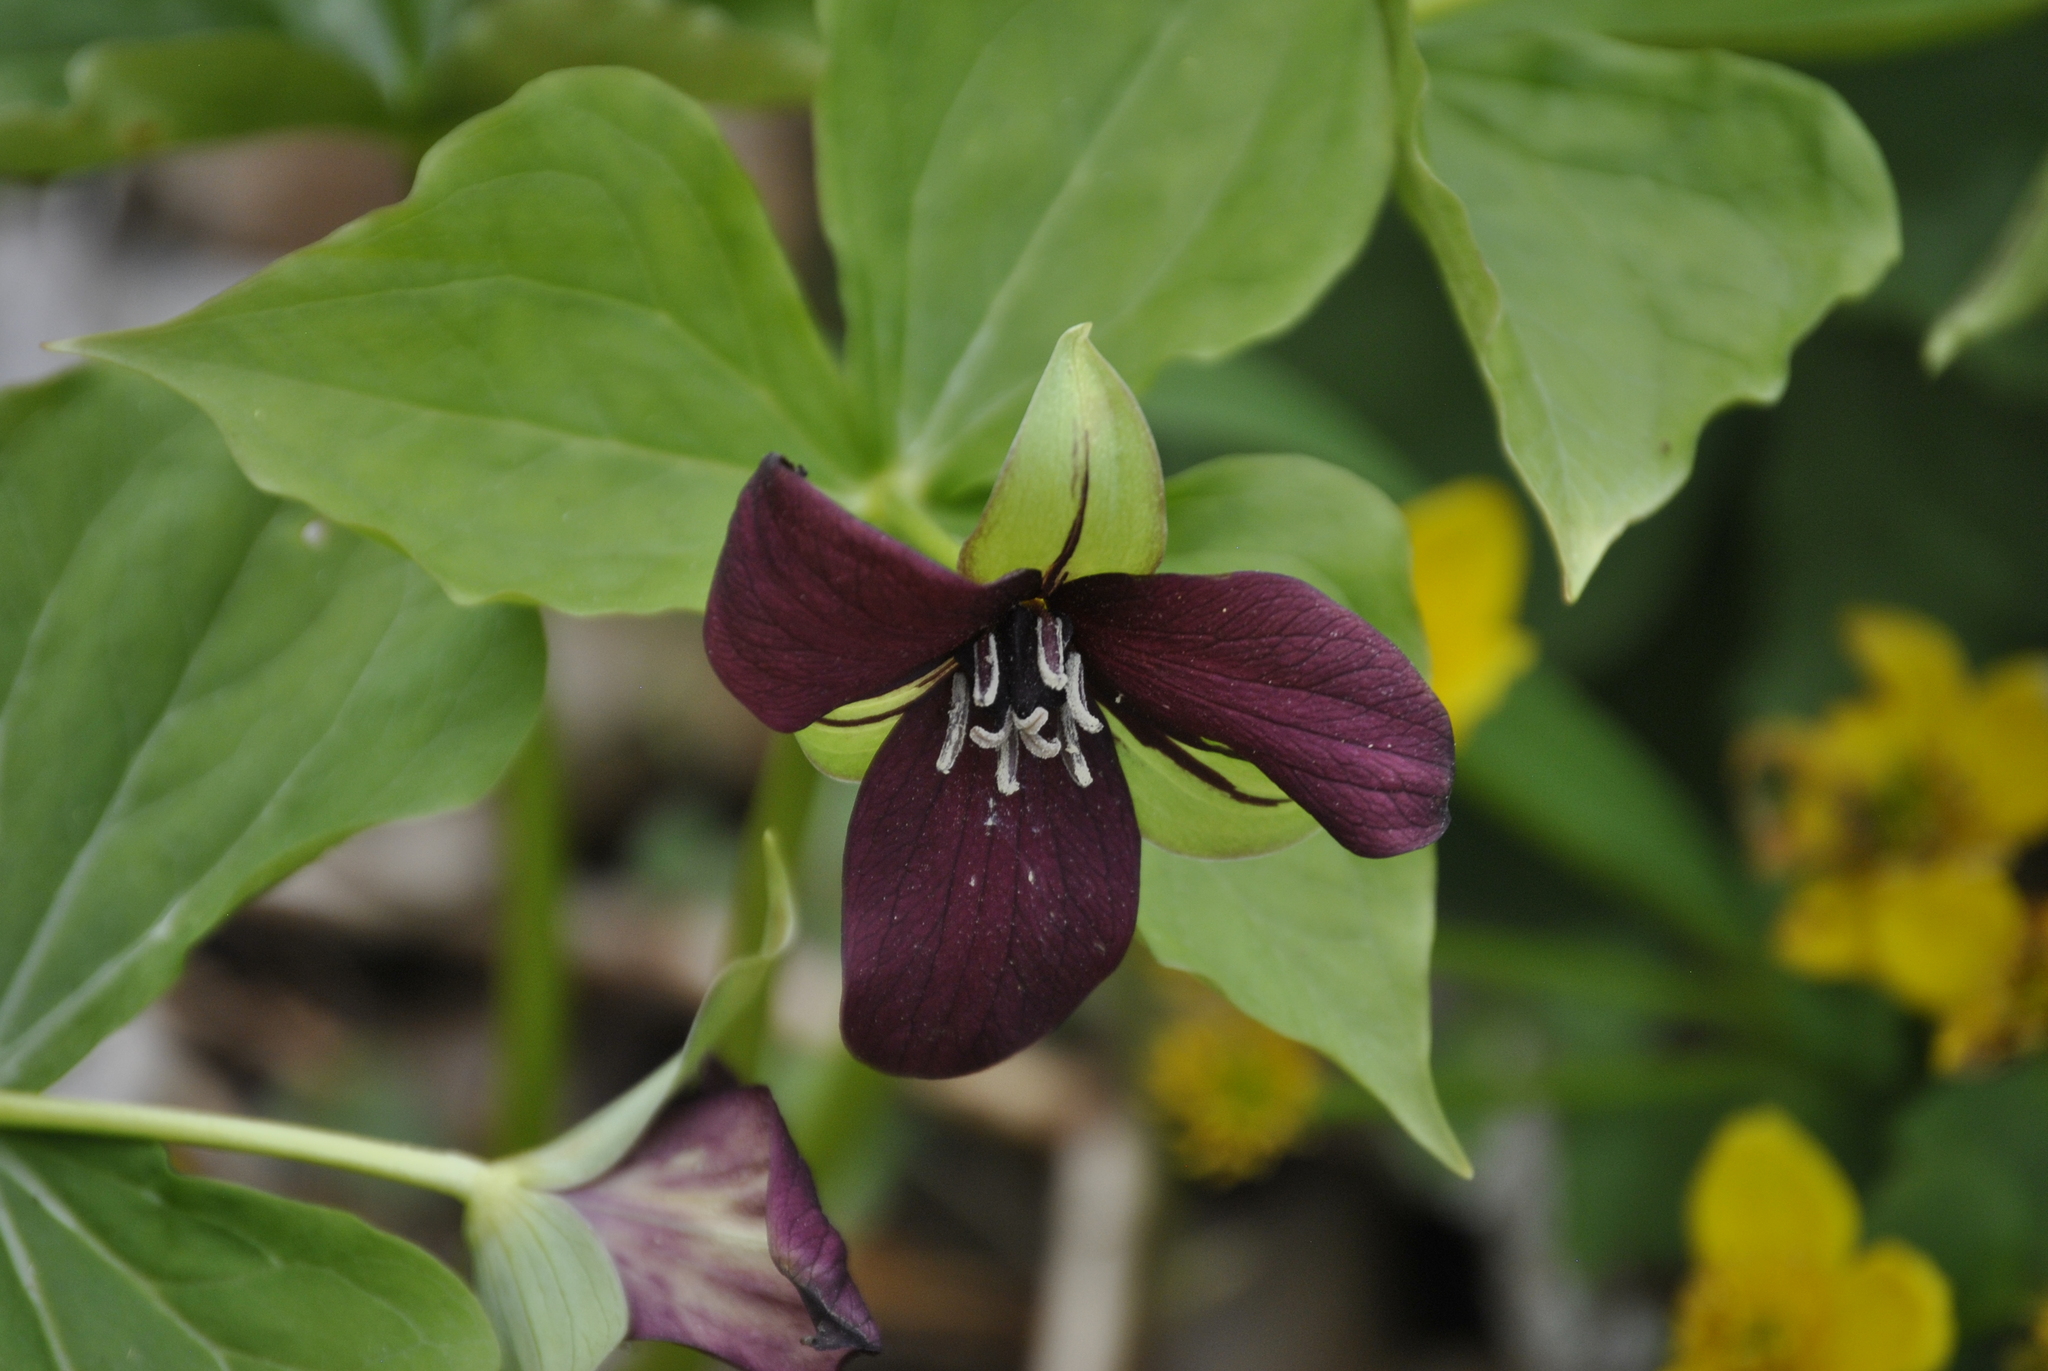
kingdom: Plantae
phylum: Tracheophyta
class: Liliopsida
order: Liliales
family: Melanthiaceae
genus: Trillium
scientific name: Trillium erectum
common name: Purple trillium
